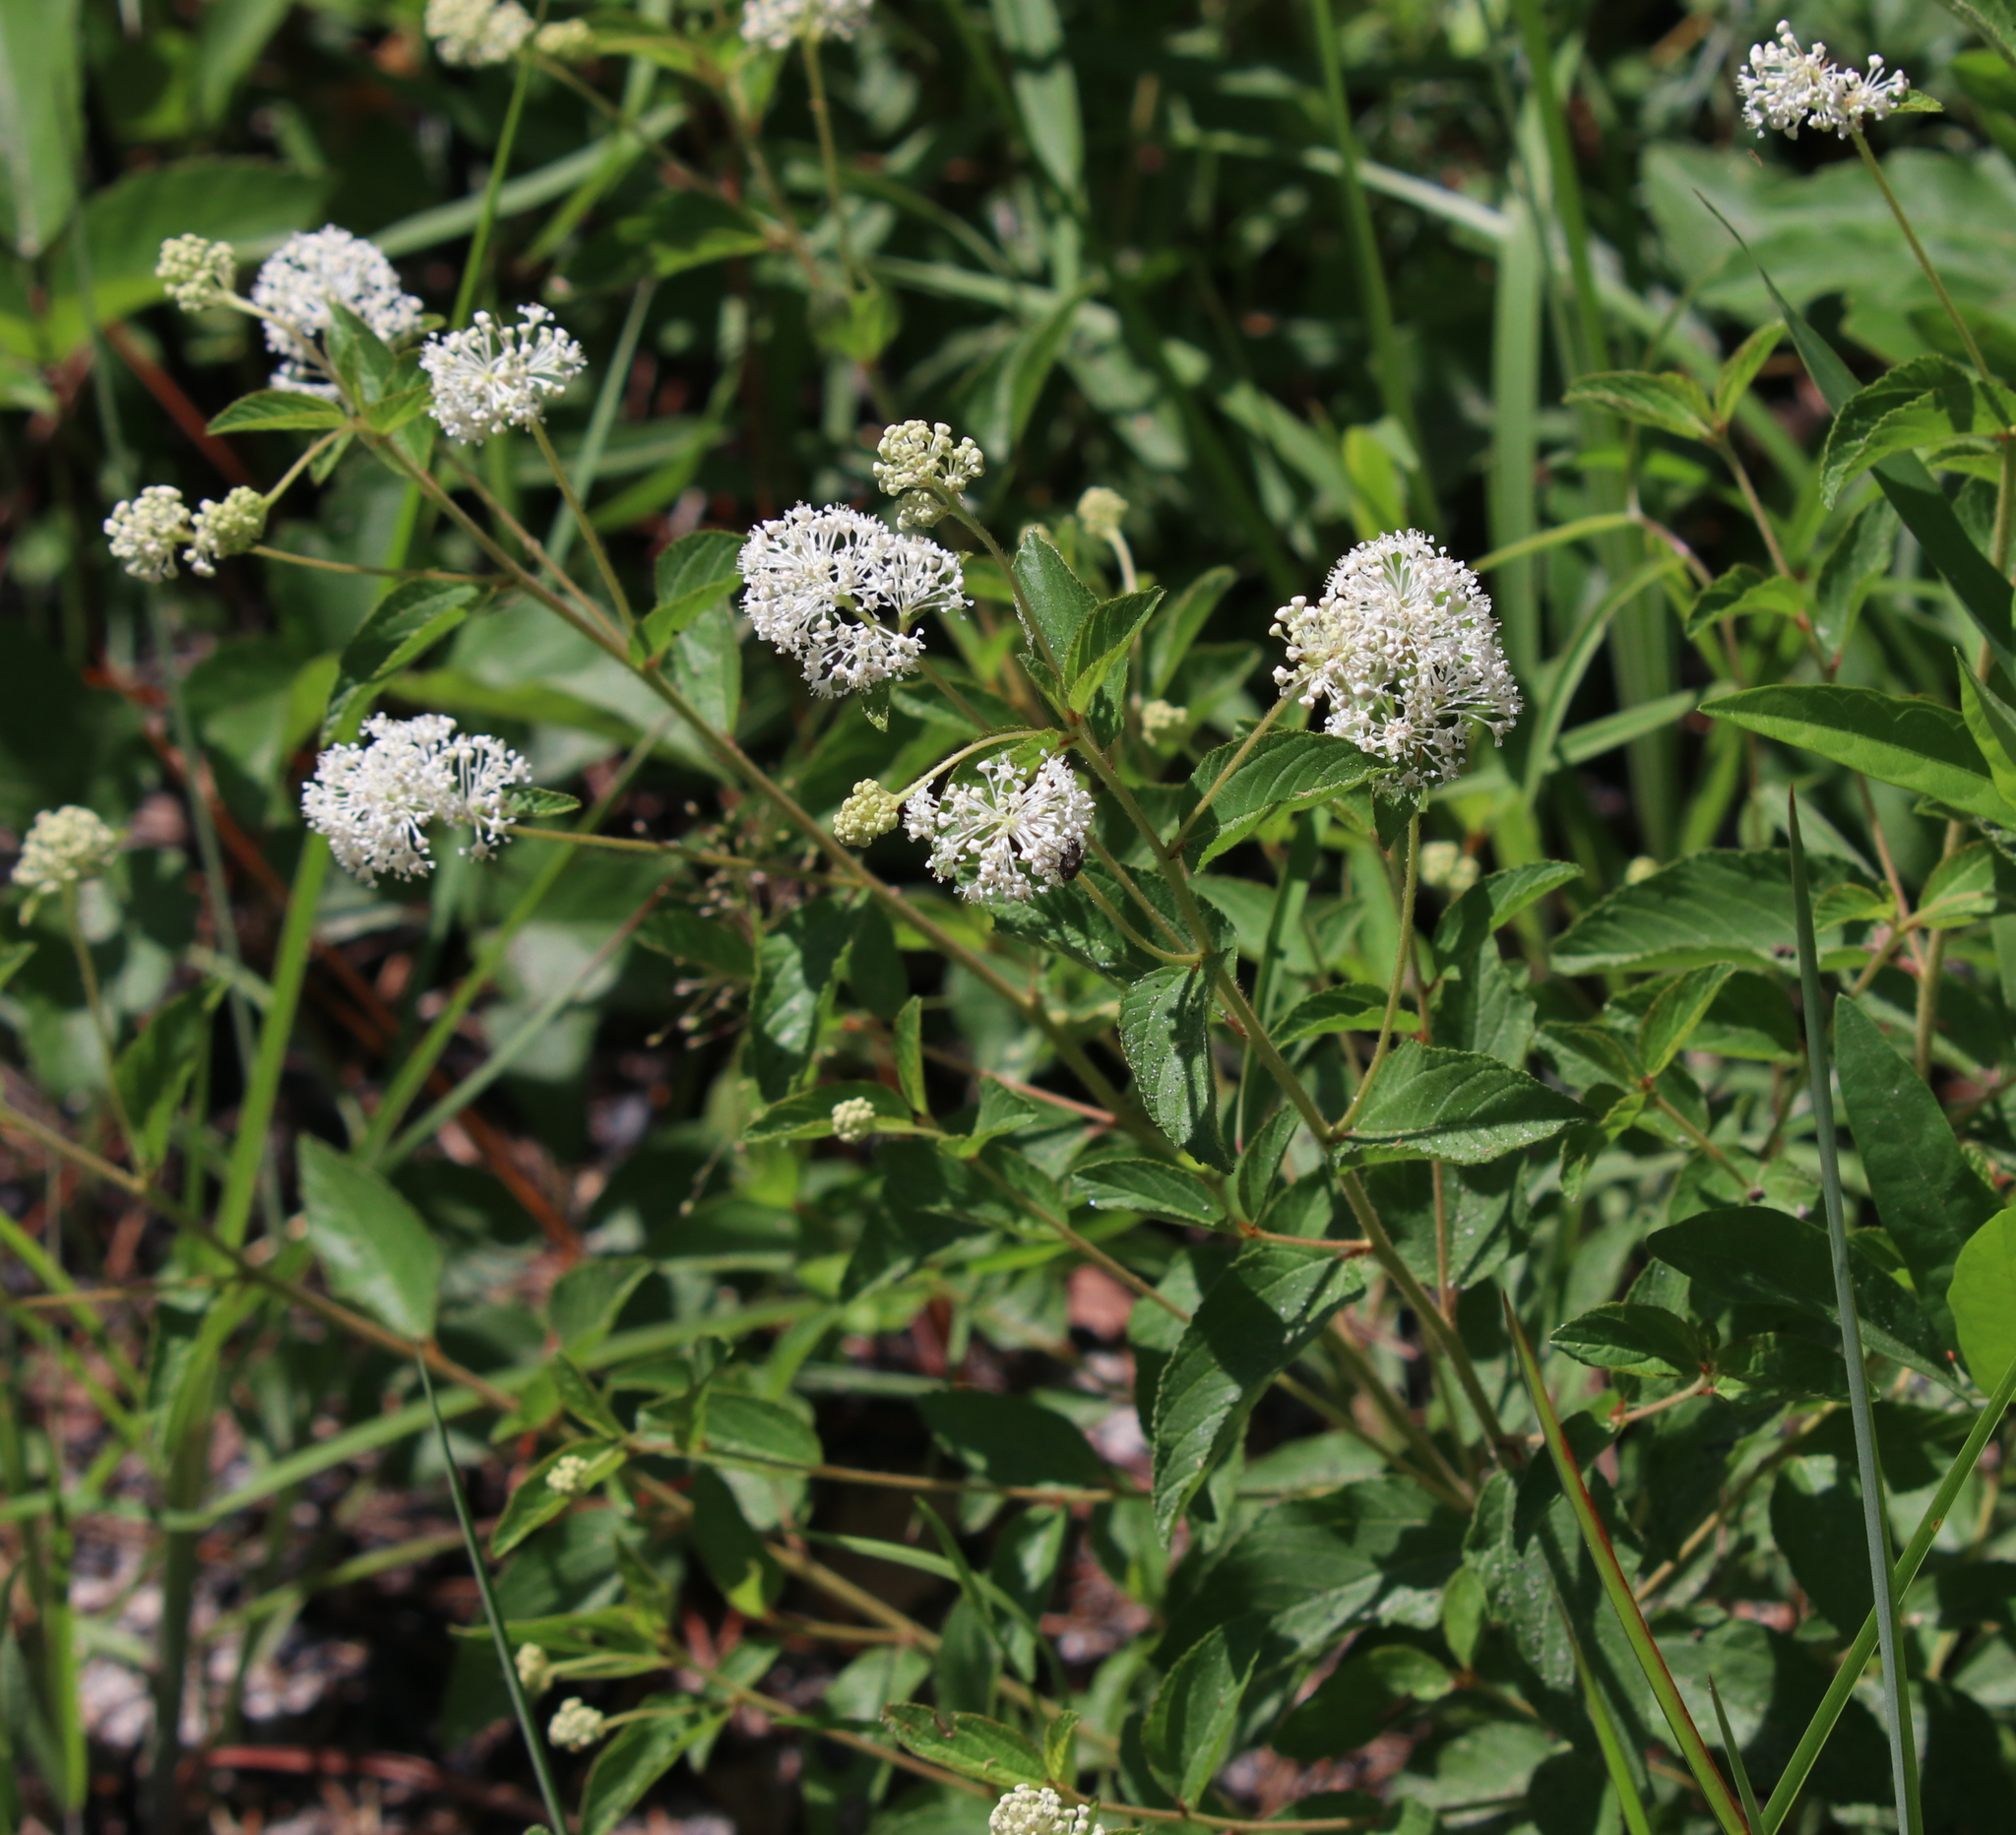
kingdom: Plantae
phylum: Tracheophyta
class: Magnoliopsida
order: Rosales
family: Rhamnaceae
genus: Ceanothus
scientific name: Ceanothus americanus
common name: Redroot
